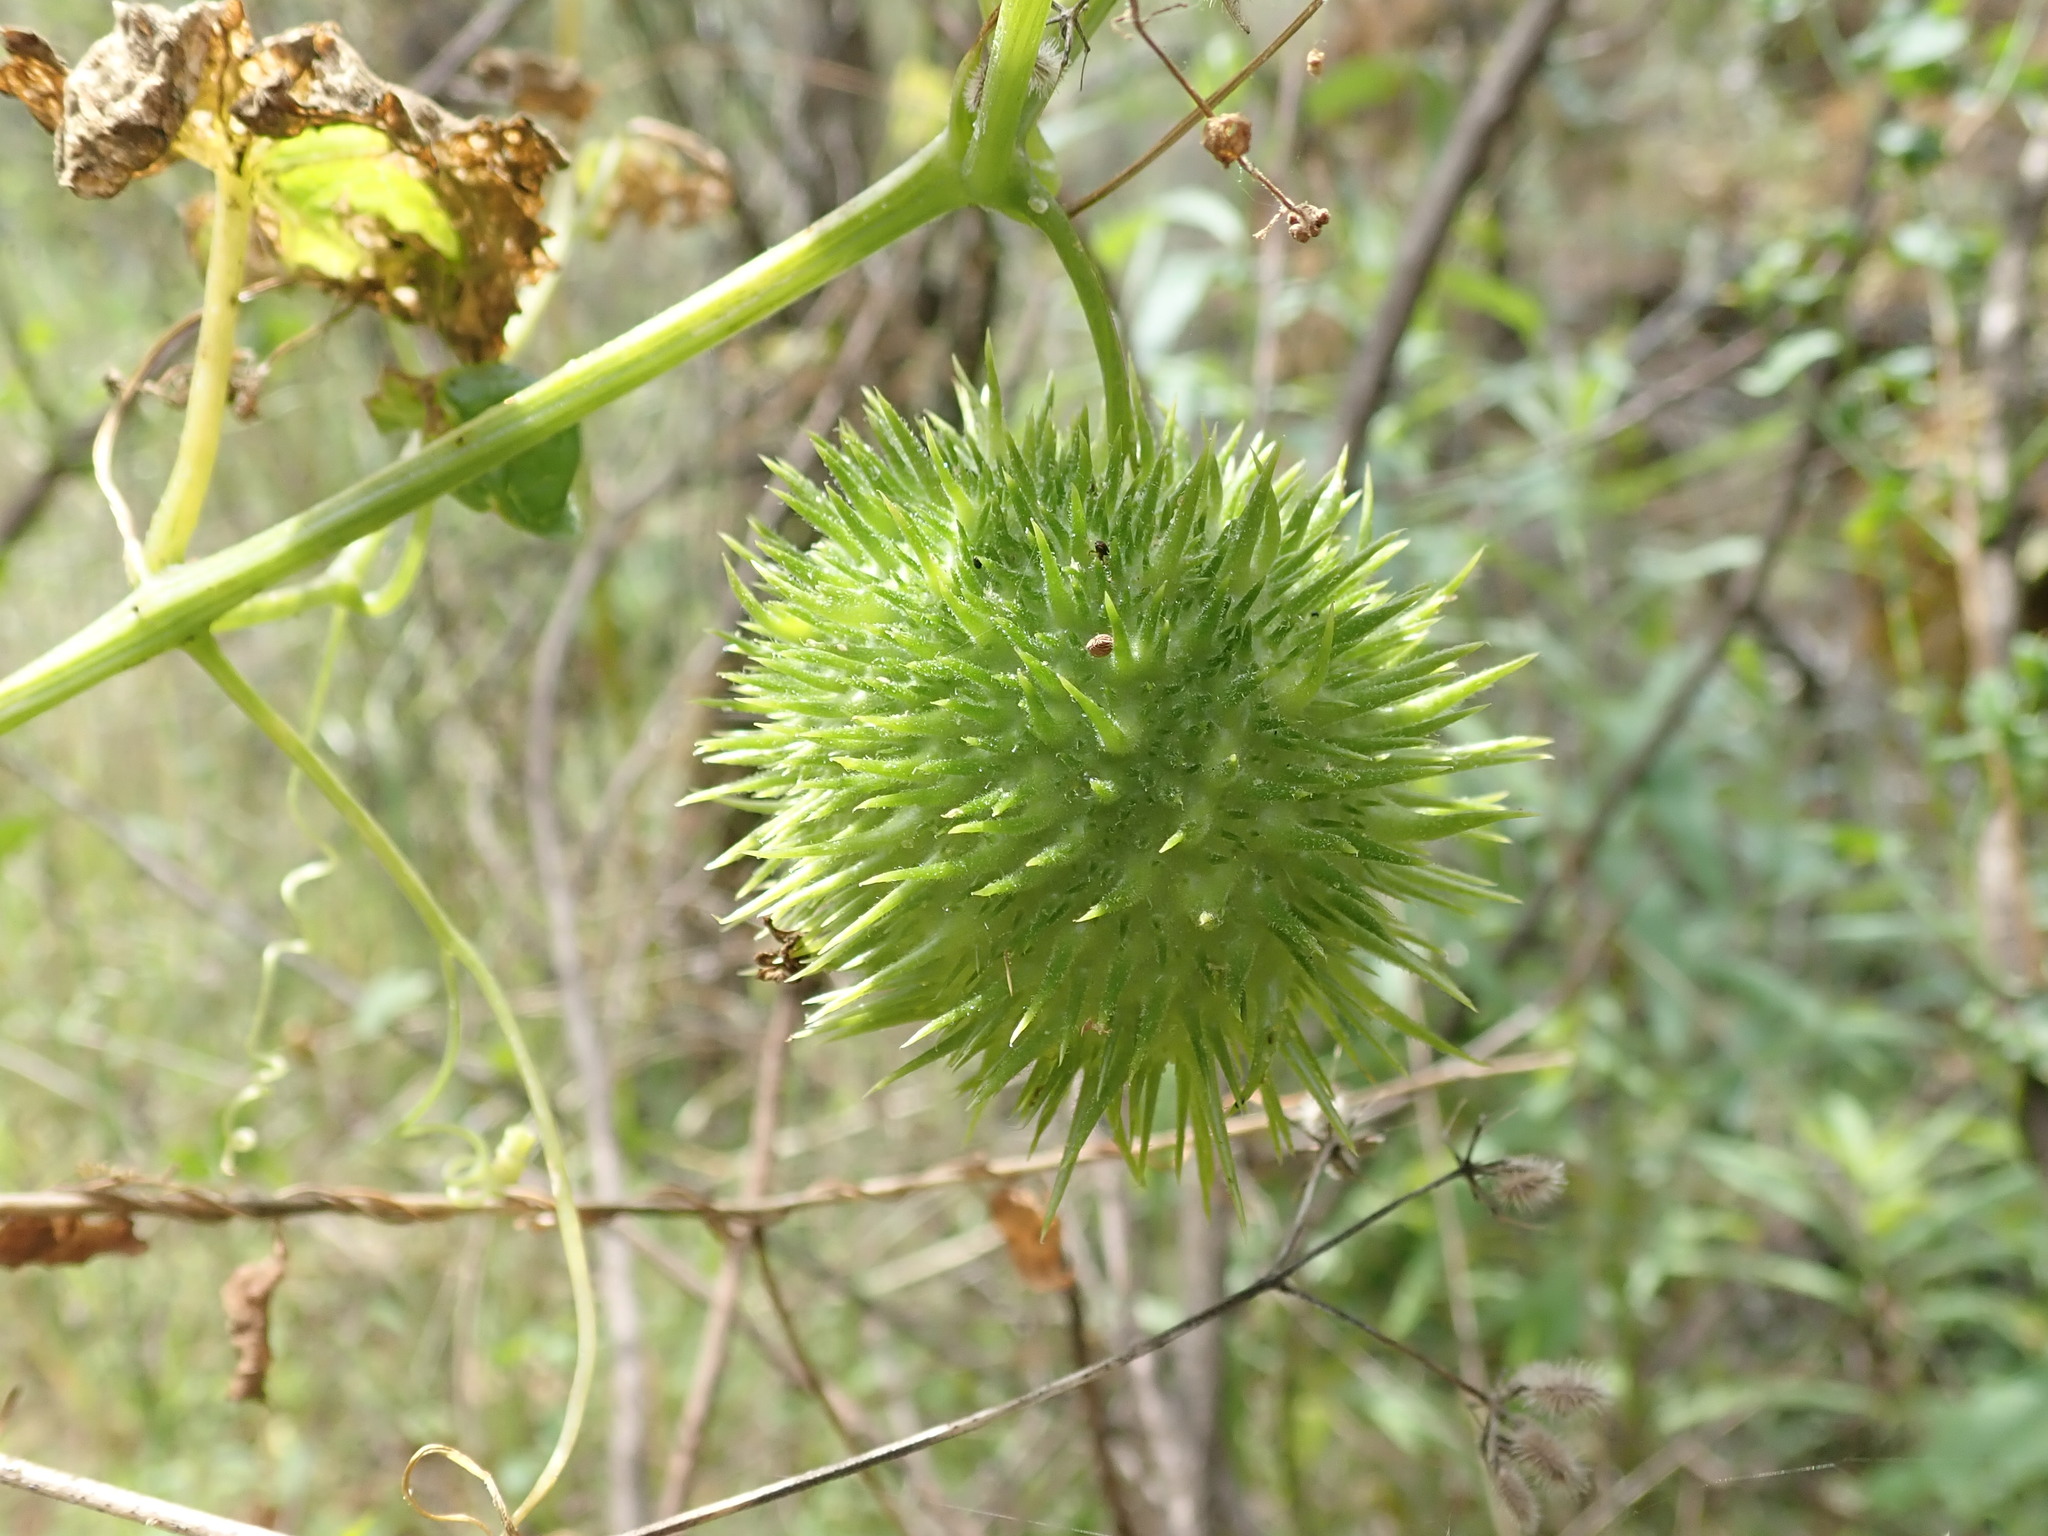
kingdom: Plantae
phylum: Tracheophyta
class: Magnoliopsida
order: Cucurbitales
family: Cucurbitaceae
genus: Marah
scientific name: Marah fabacea
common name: California manroot
